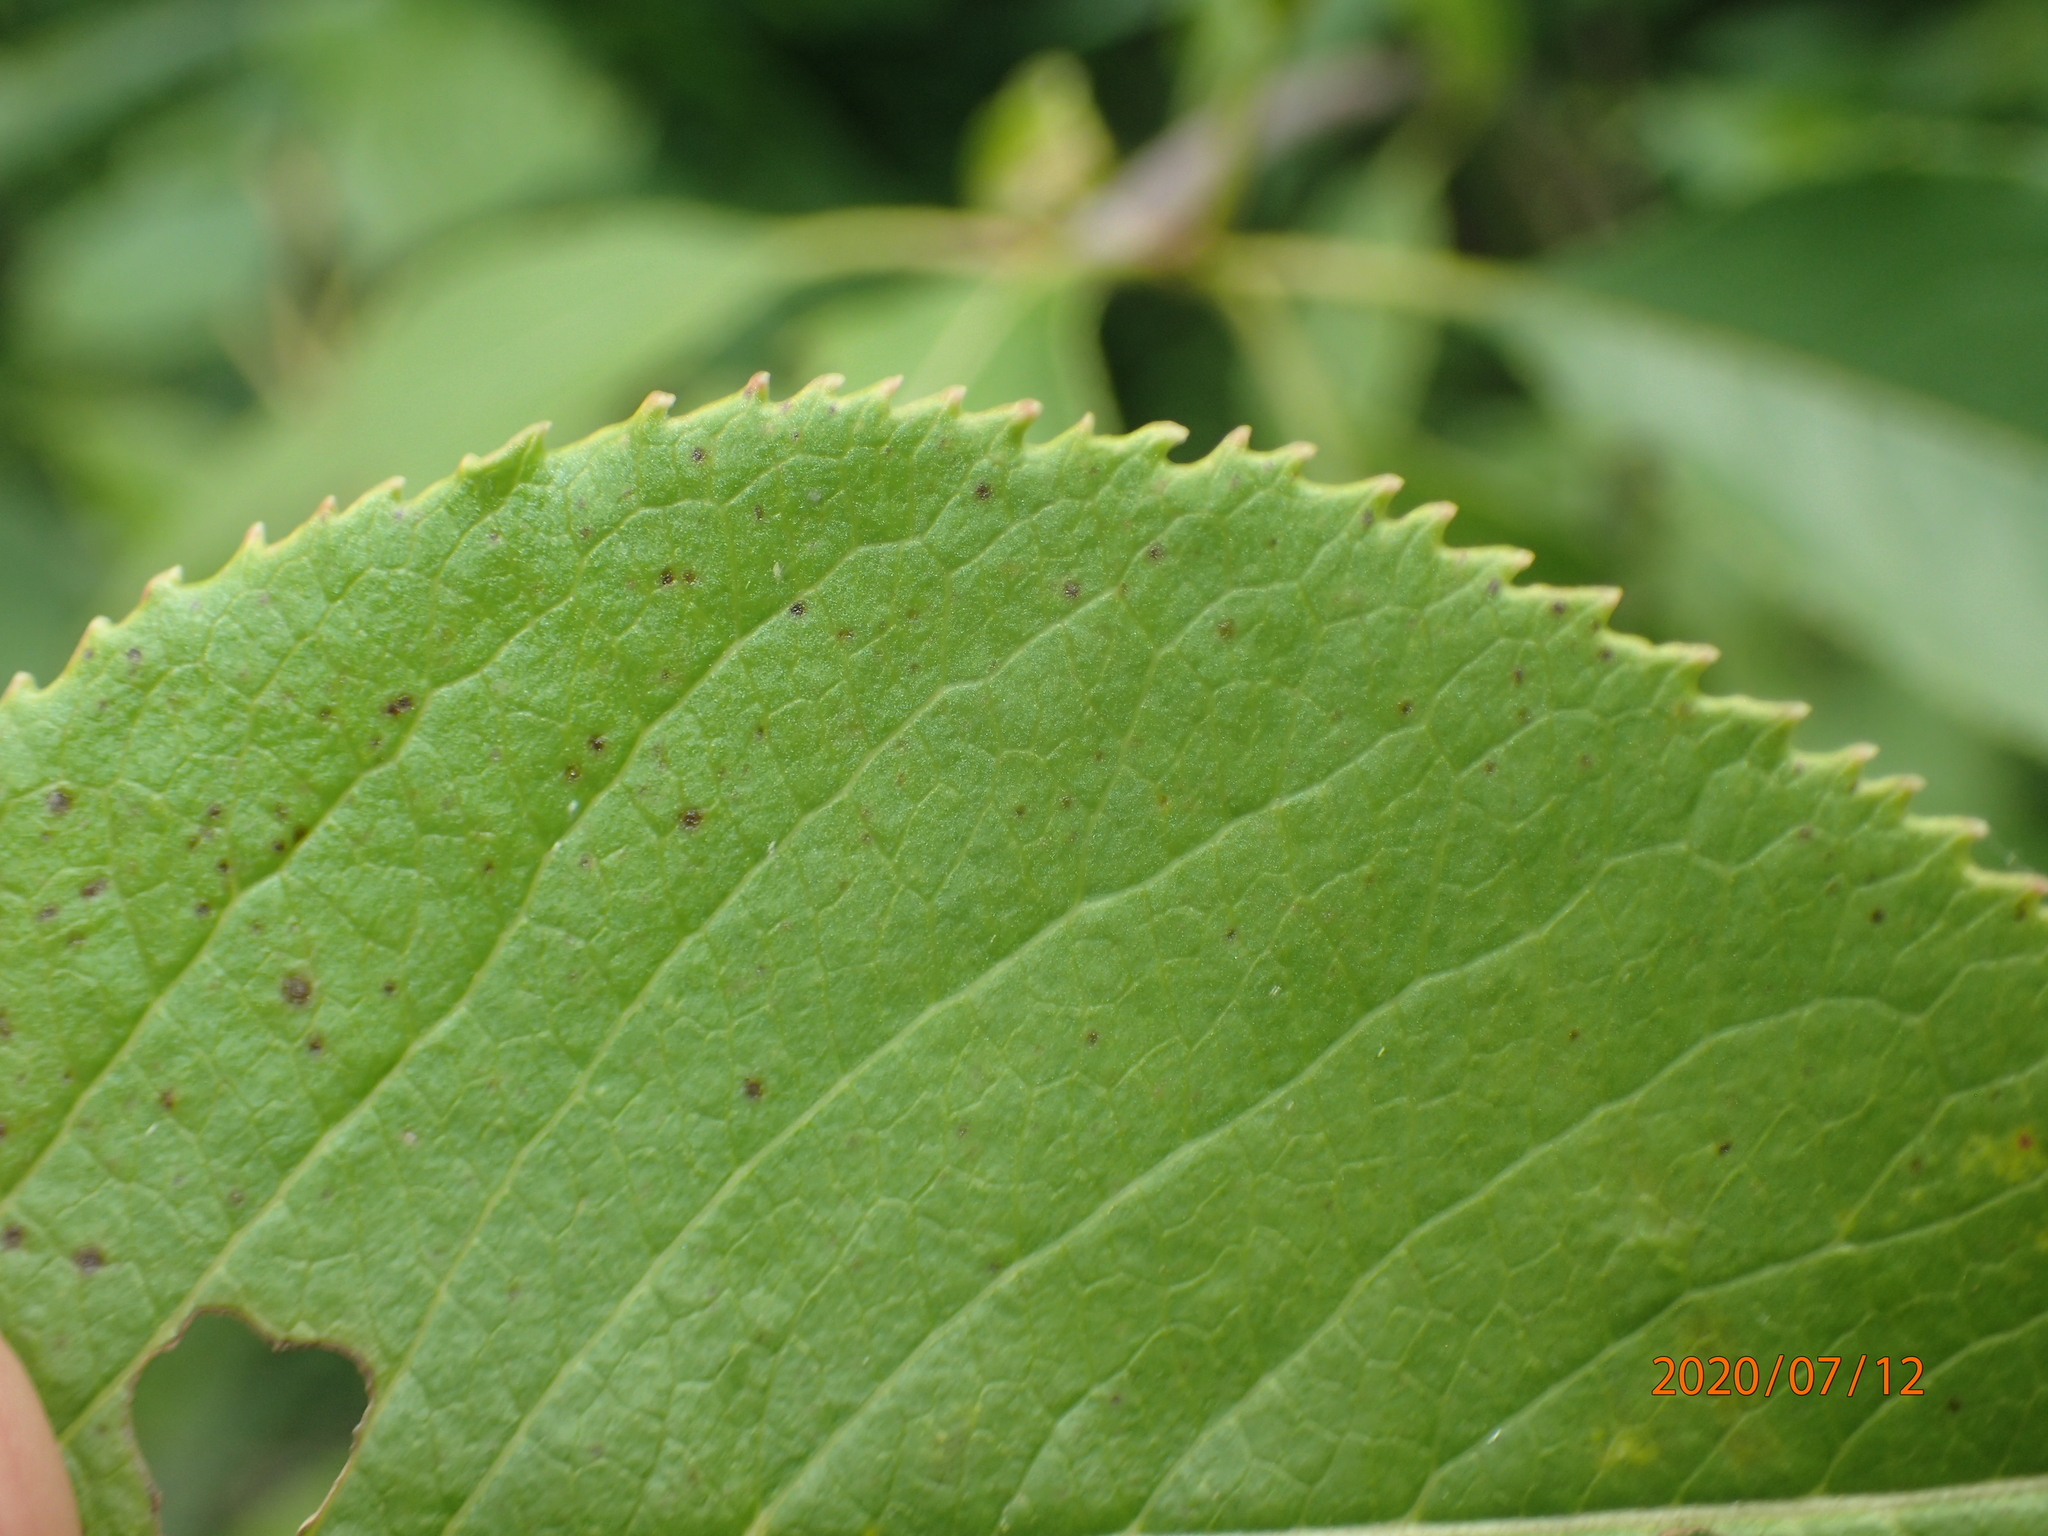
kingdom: Plantae
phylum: Tracheophyta
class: Magnoliopsida
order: Dipsacales
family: Viburnaceae
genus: Viburnum
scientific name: Viburnum lentago
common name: Black haw
